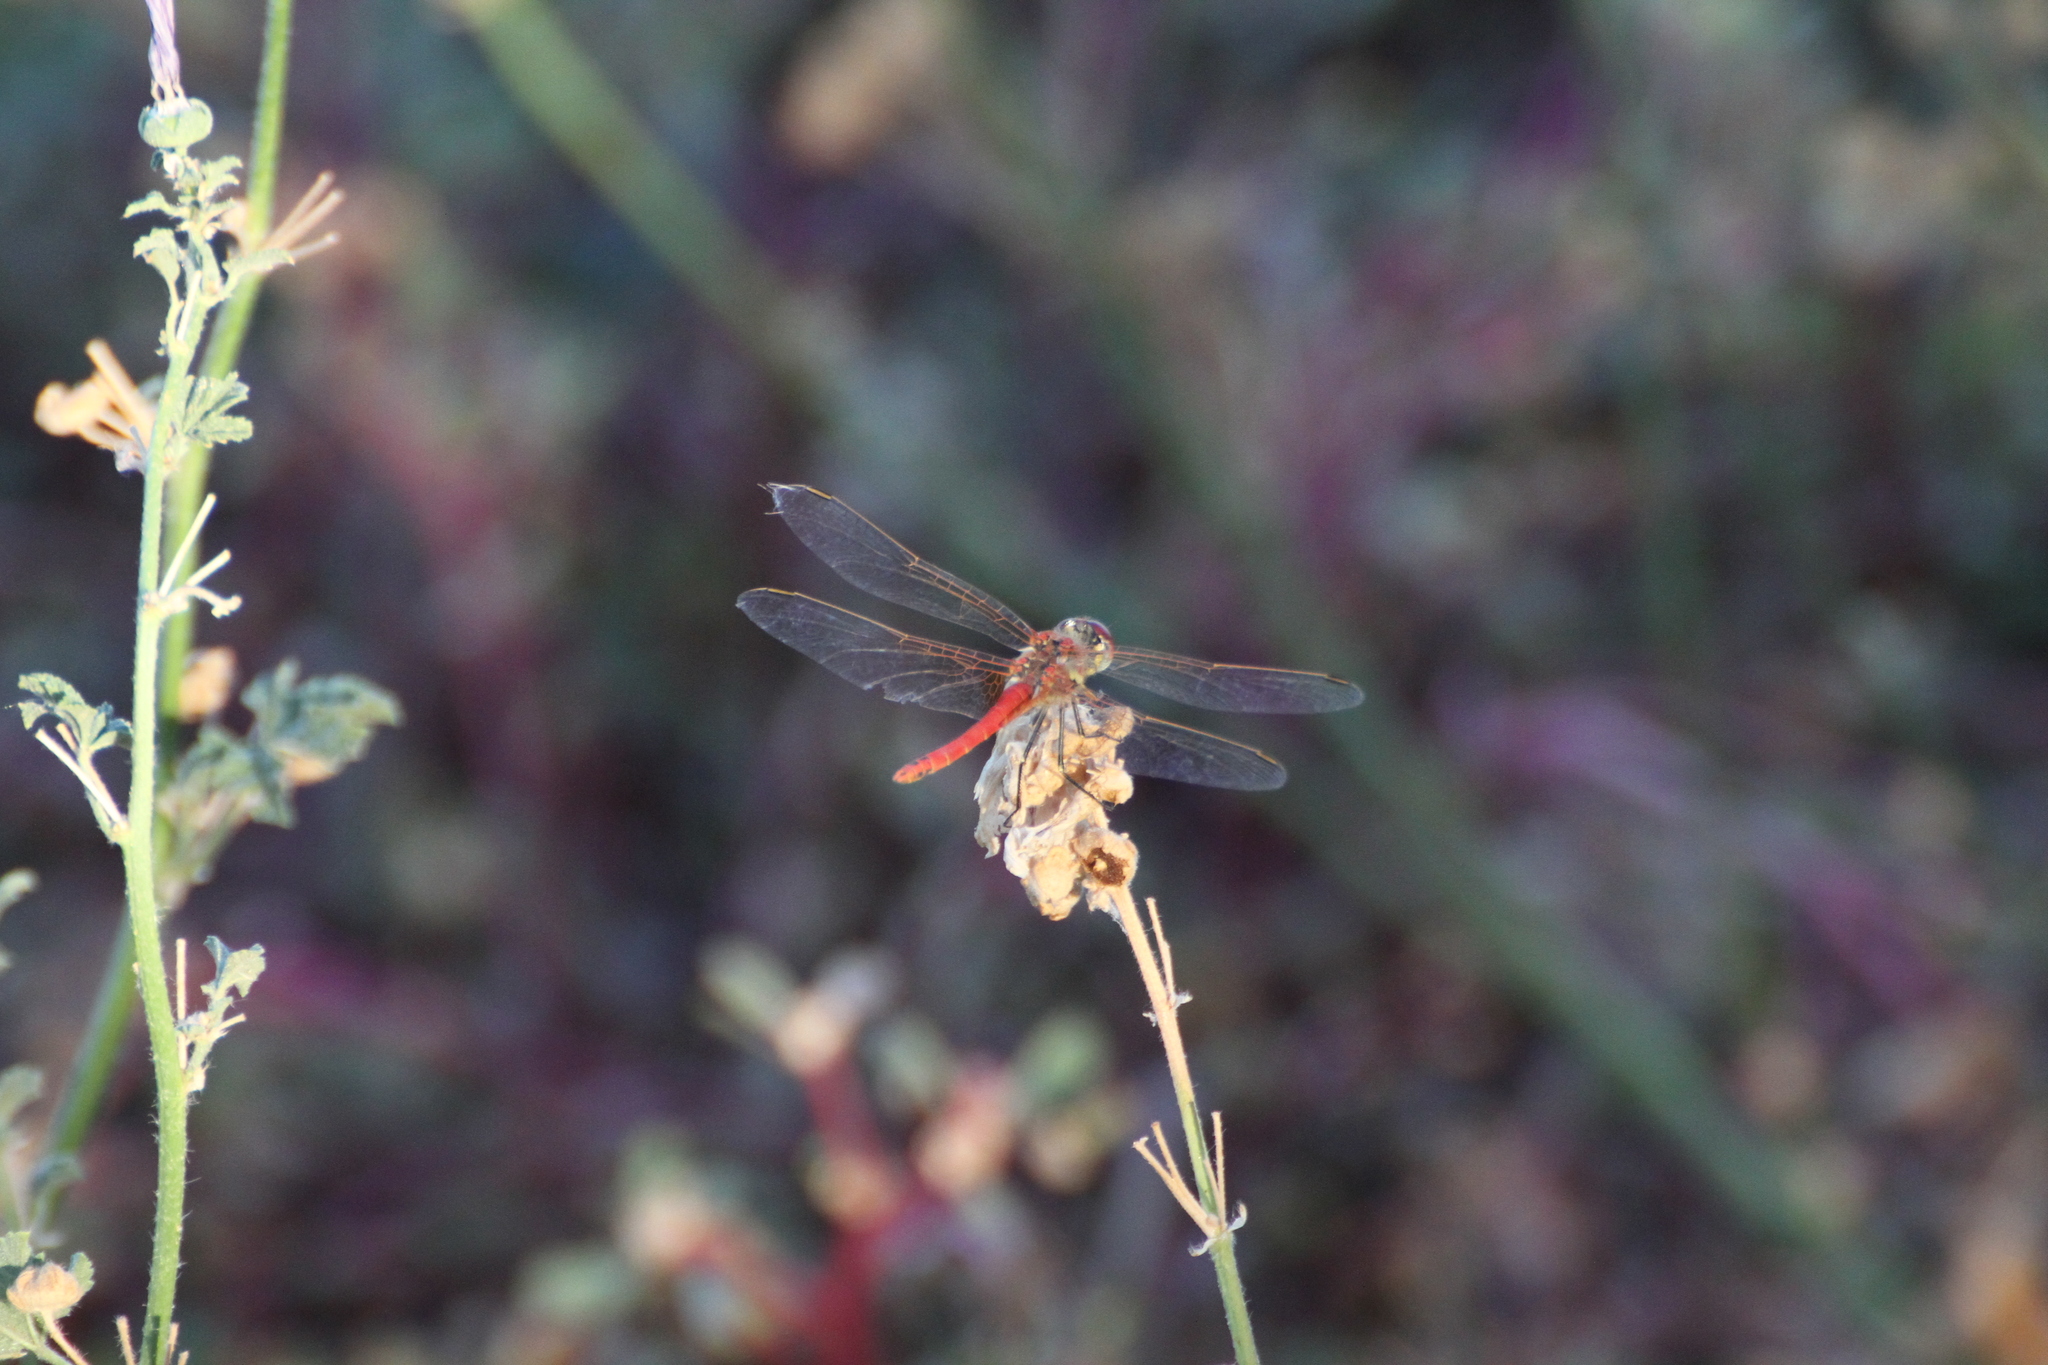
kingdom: Animalia
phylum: Arthropoda
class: Insecta
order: Odonata
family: Libellulidae
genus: Sympetrum
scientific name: Sympetrum fonscolombii
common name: Red-veined darter
